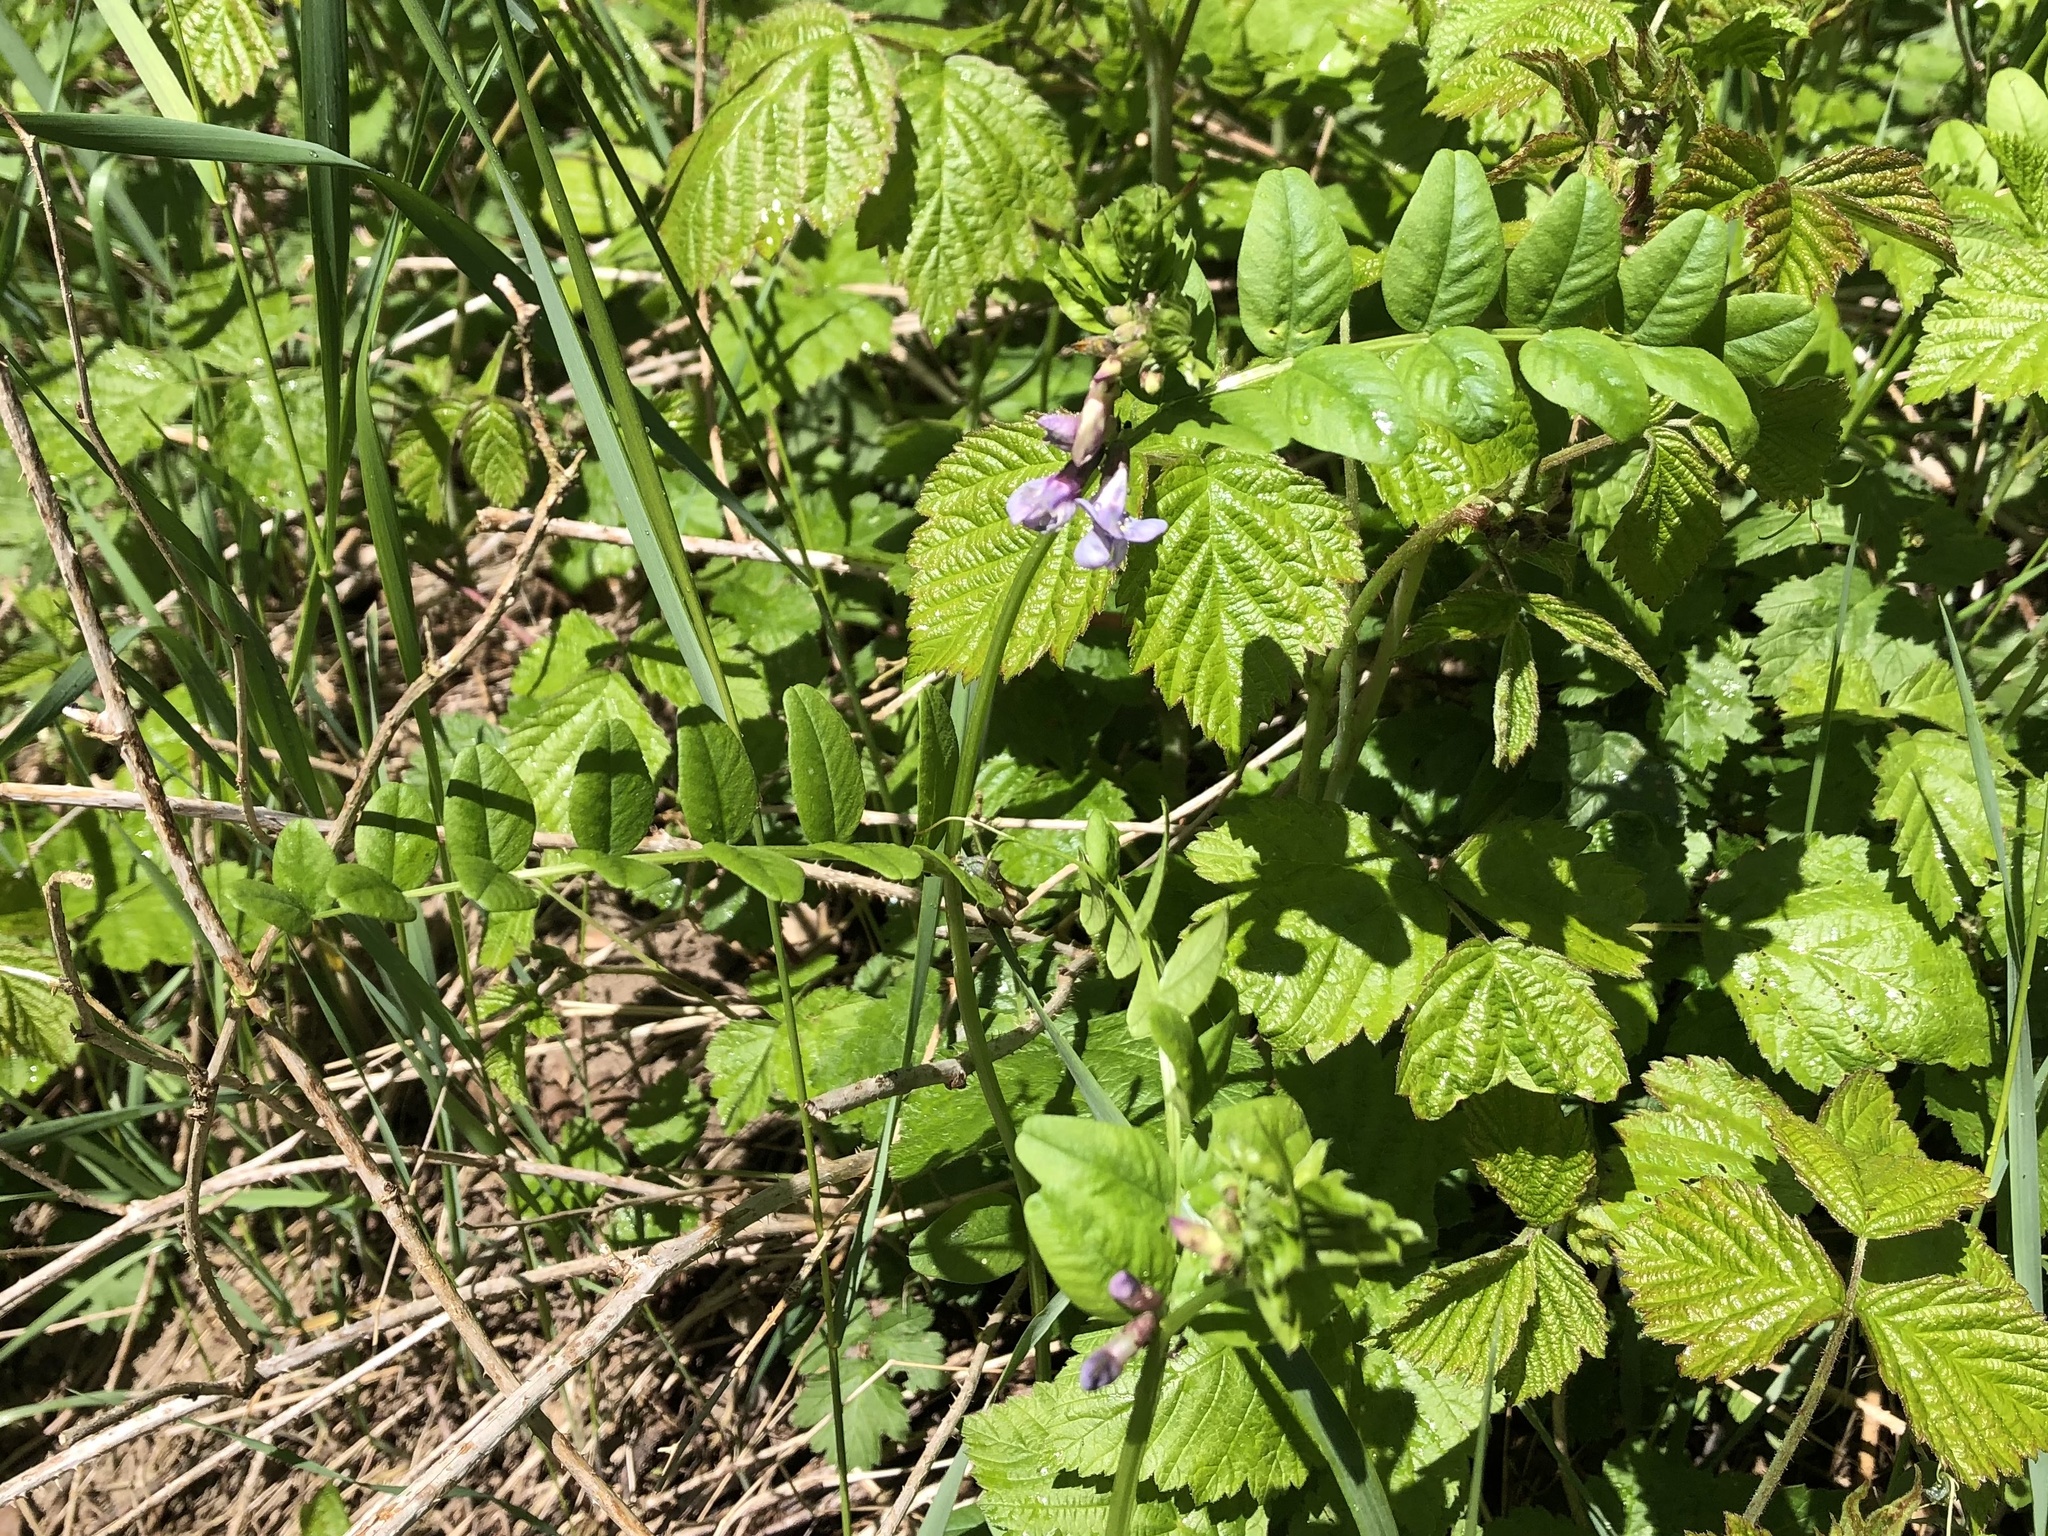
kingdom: Plantae
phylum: Tracheophyta
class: Magnoliopsida
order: Fabales
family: Fabaceae
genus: Vicia
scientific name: Vicia sepium
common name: Bush vetch
